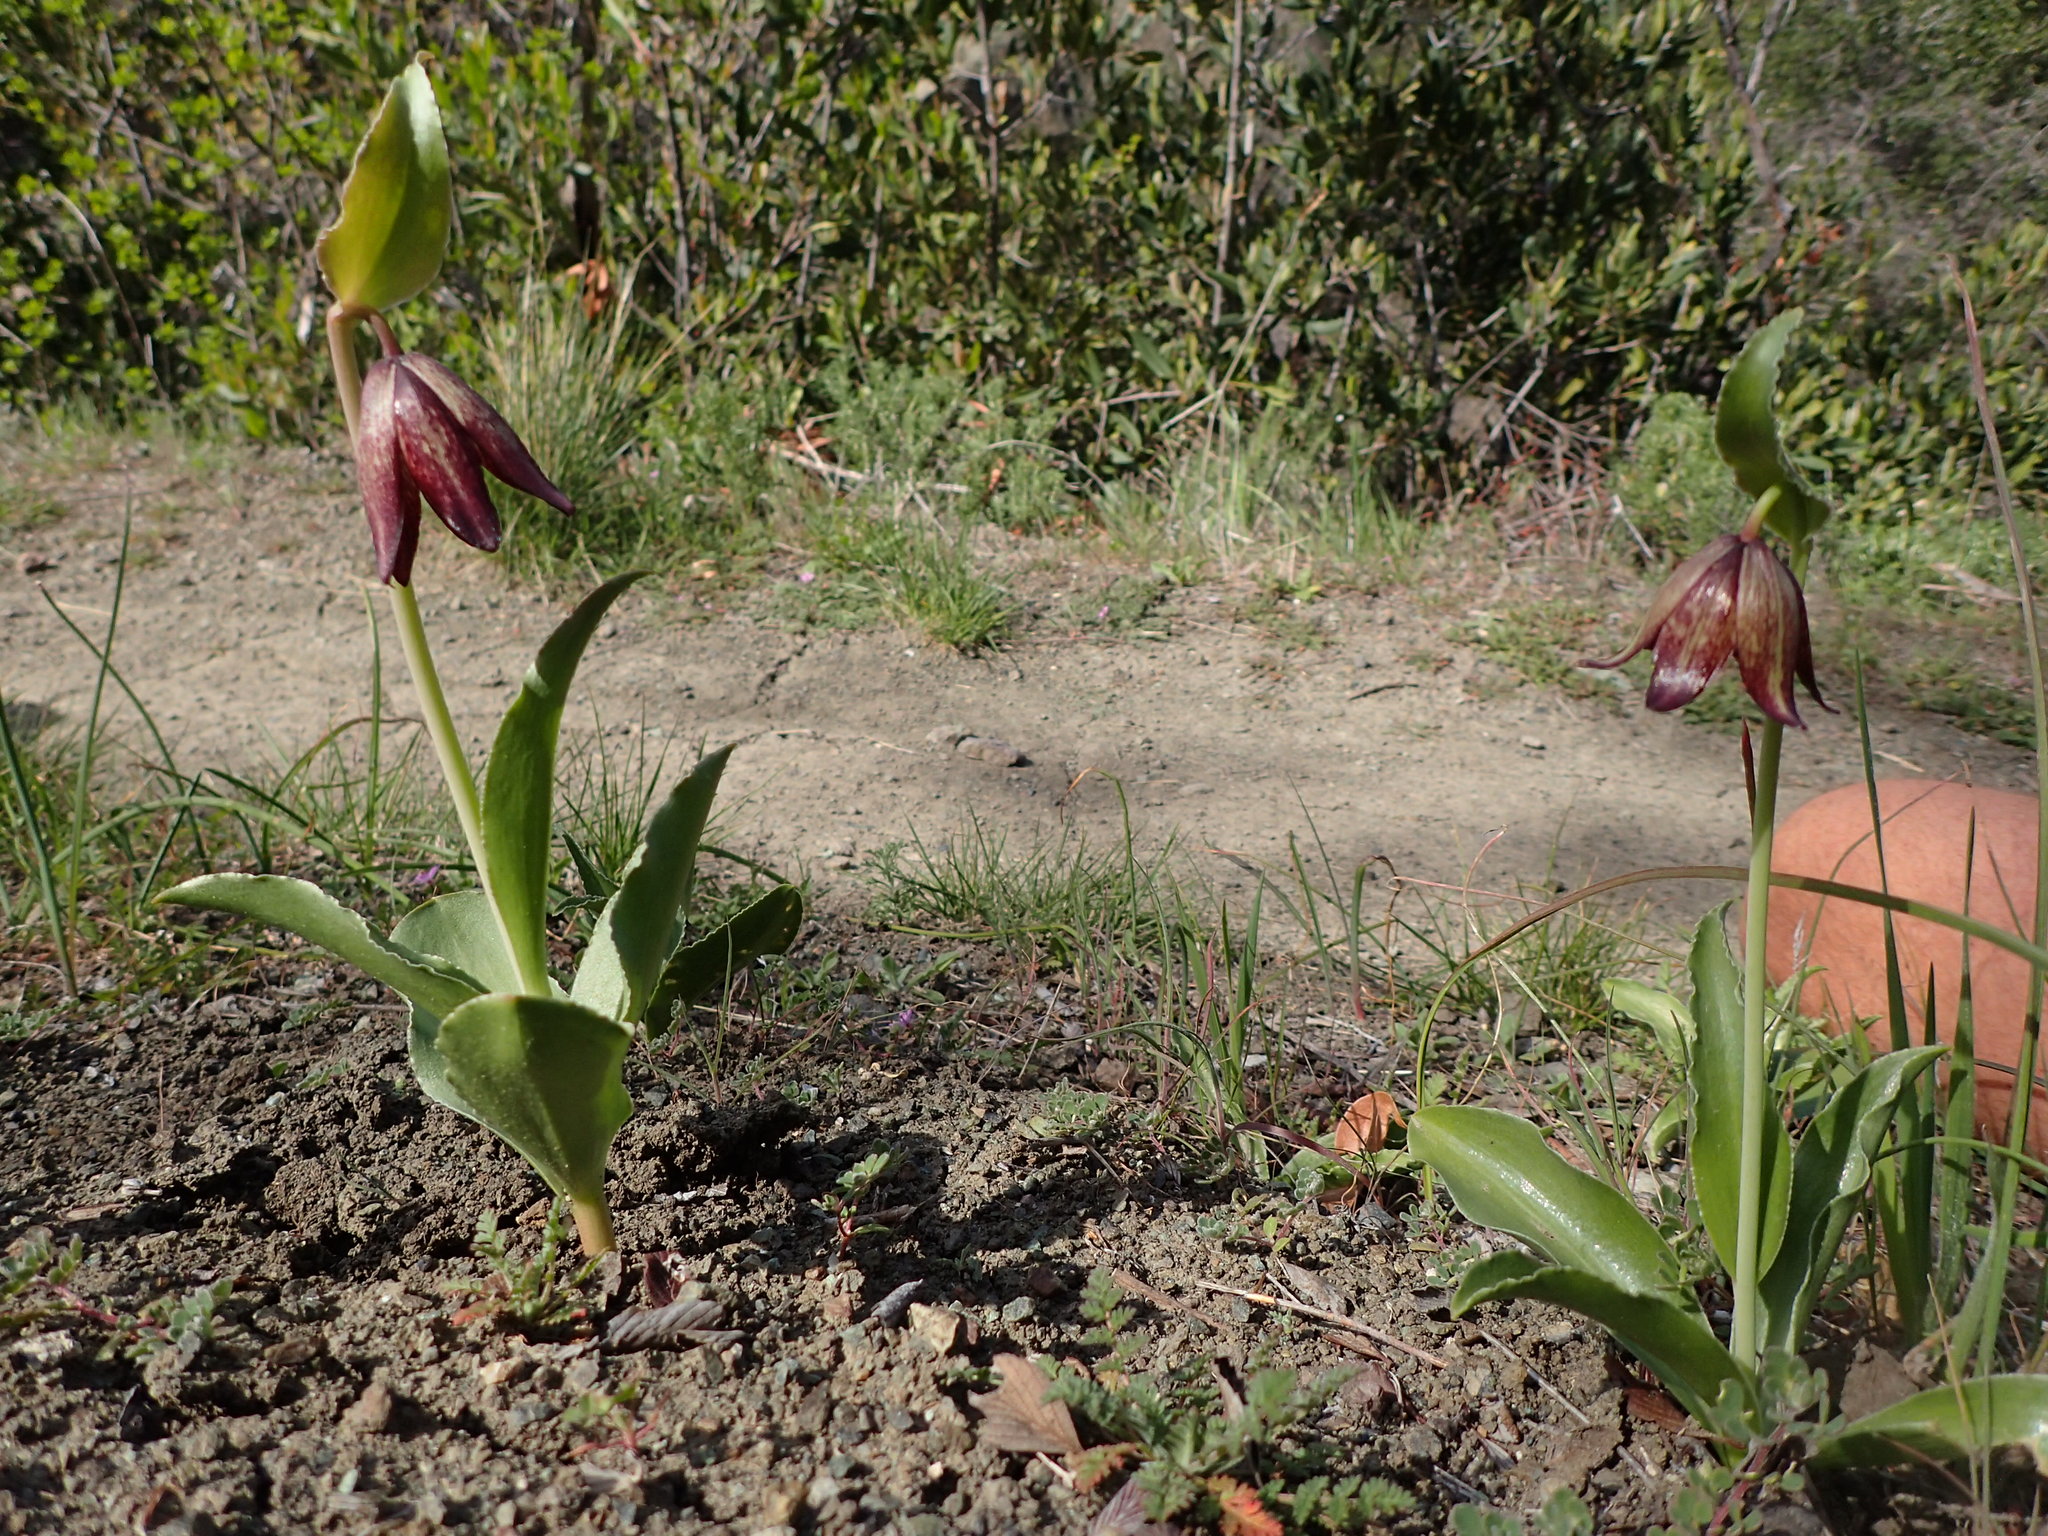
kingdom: Plantae
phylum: Tracheophyta
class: Liliopsida
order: Liliales
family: Liliaceae
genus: Fritillaria
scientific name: Fritillaria biflora
